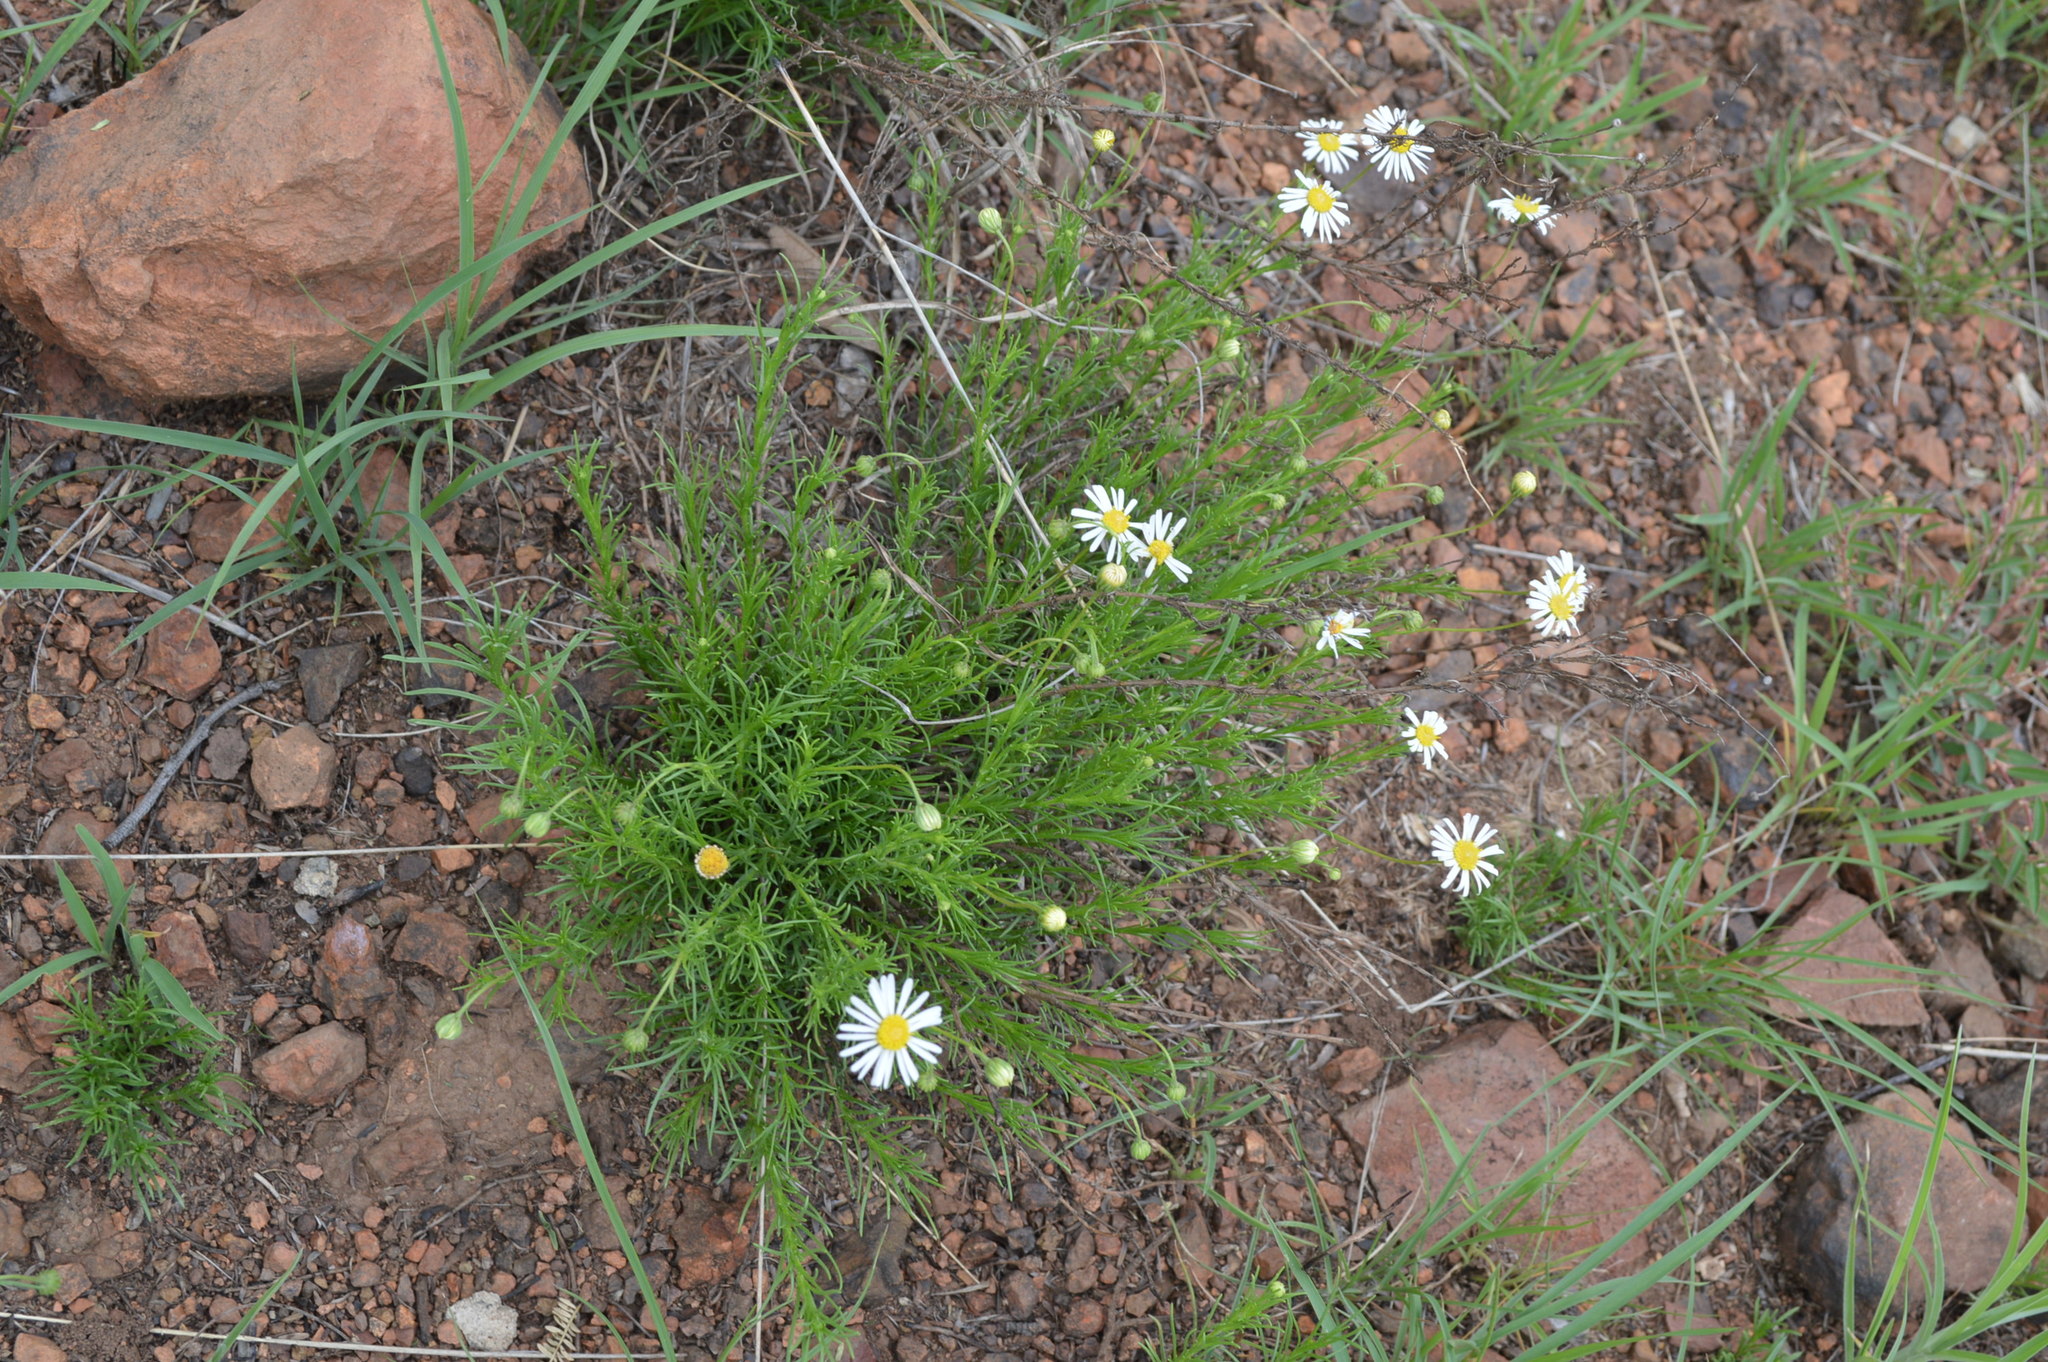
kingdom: Plantae
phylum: Tracheophyta
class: Magnoliopsida
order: Asterales
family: Asteraceae
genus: Felicia
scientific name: Felicia muricata
